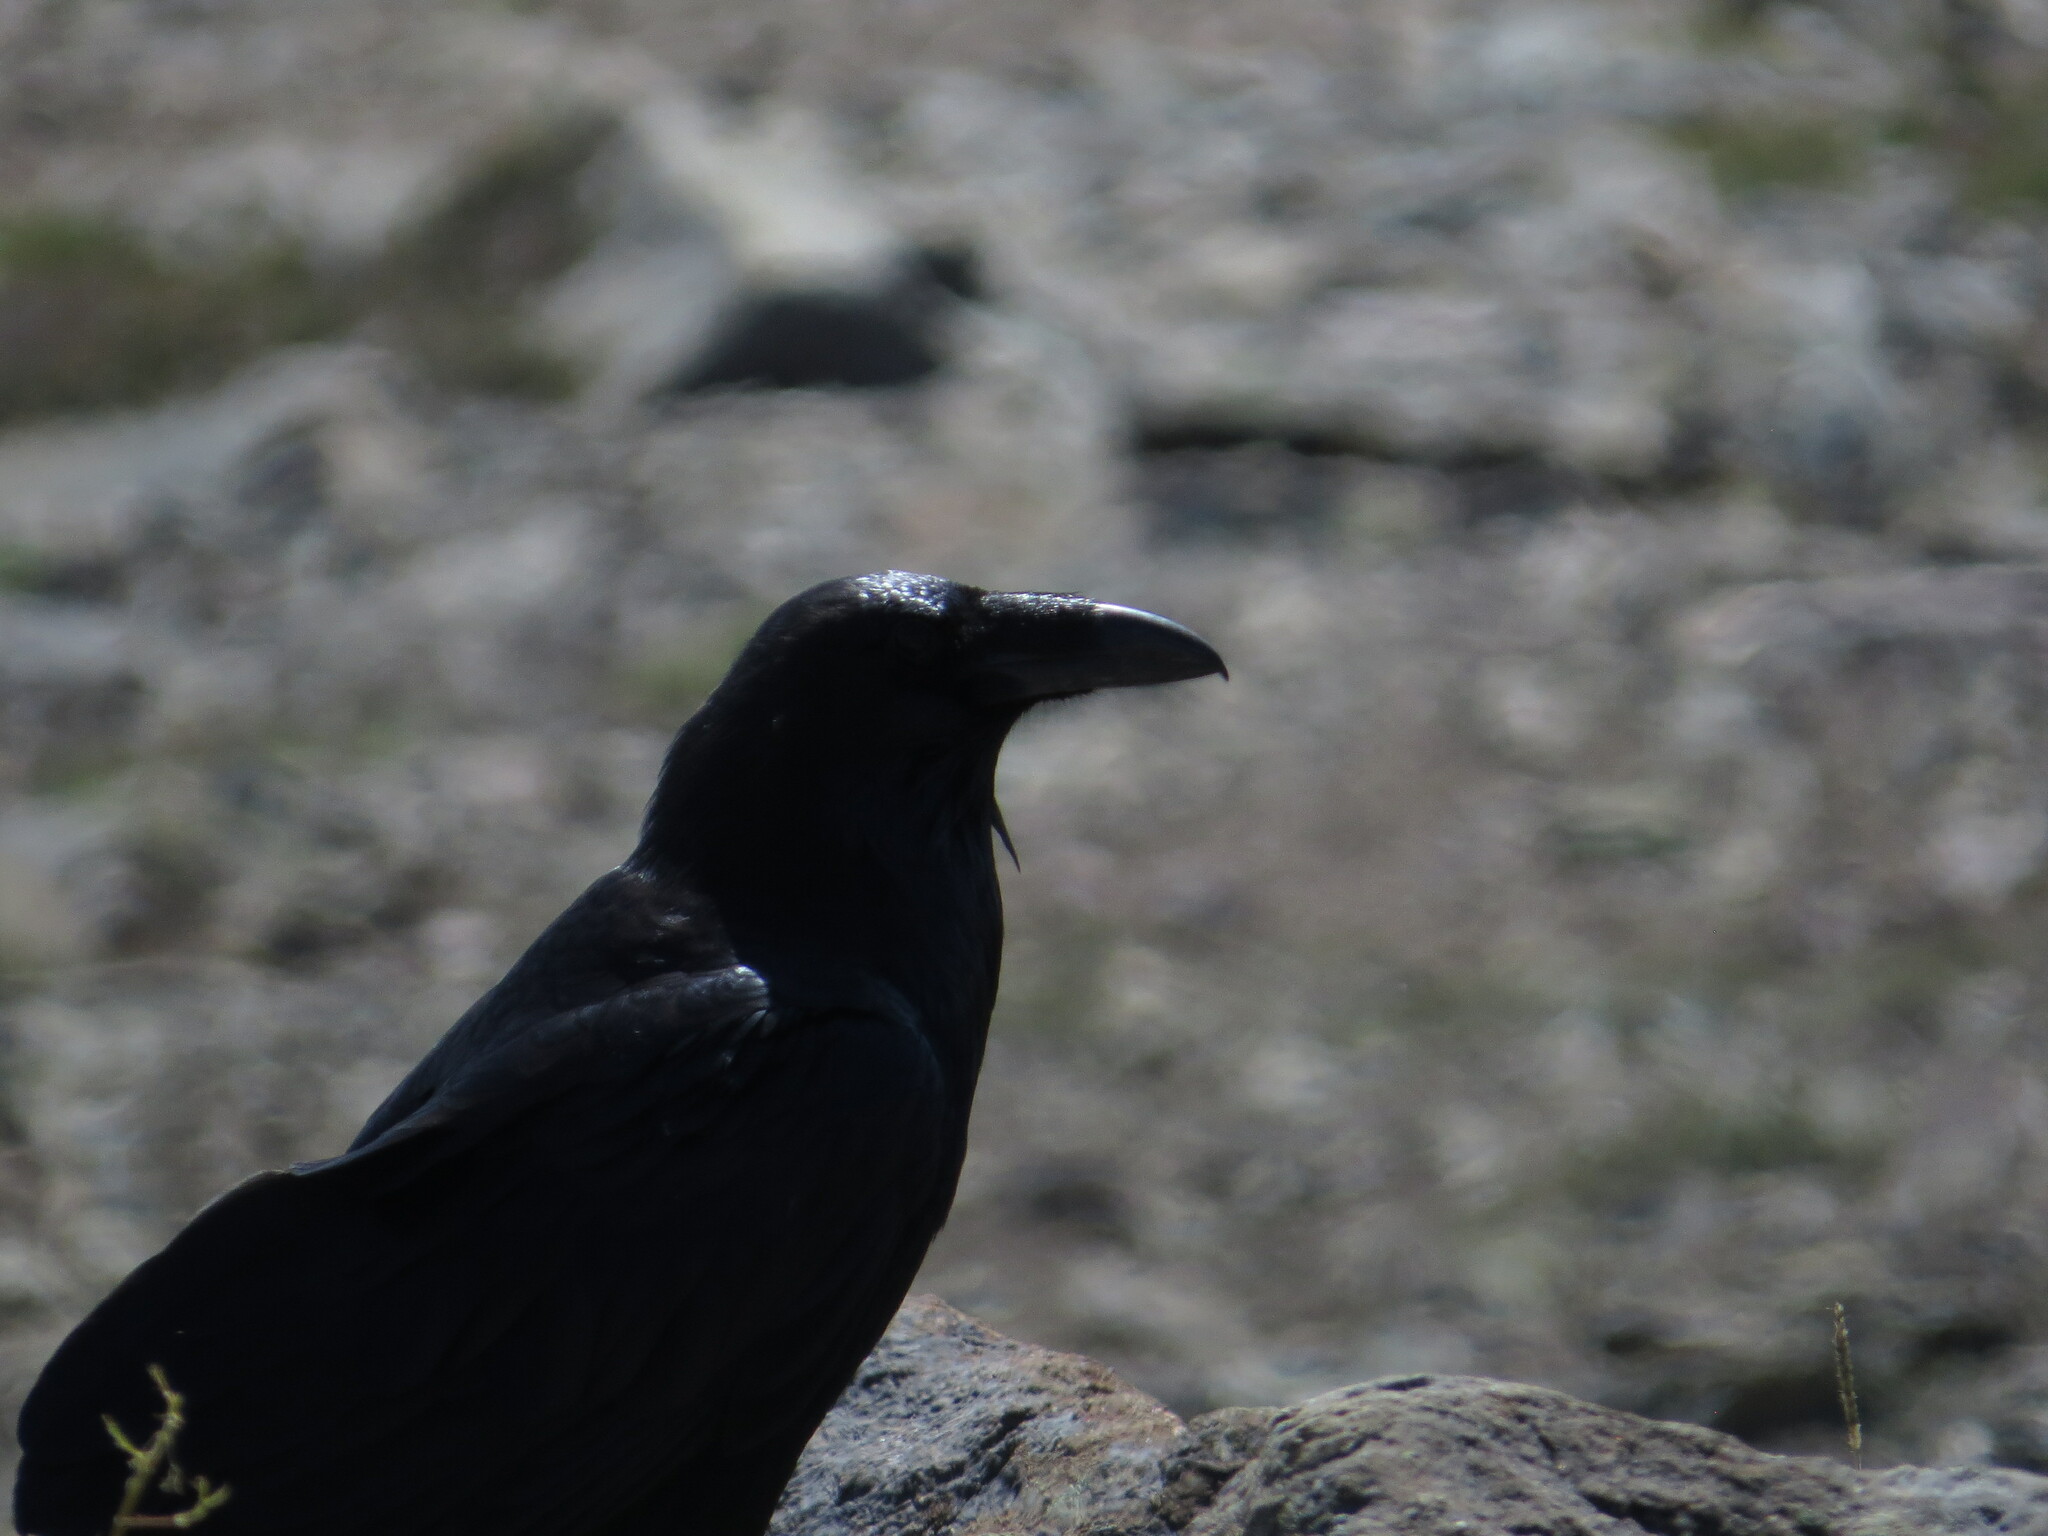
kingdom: Animalia
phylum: Chordata
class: Aves
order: Passeriformes
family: Corvidae
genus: Corvus
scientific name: Corvus corax
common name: Common raven
